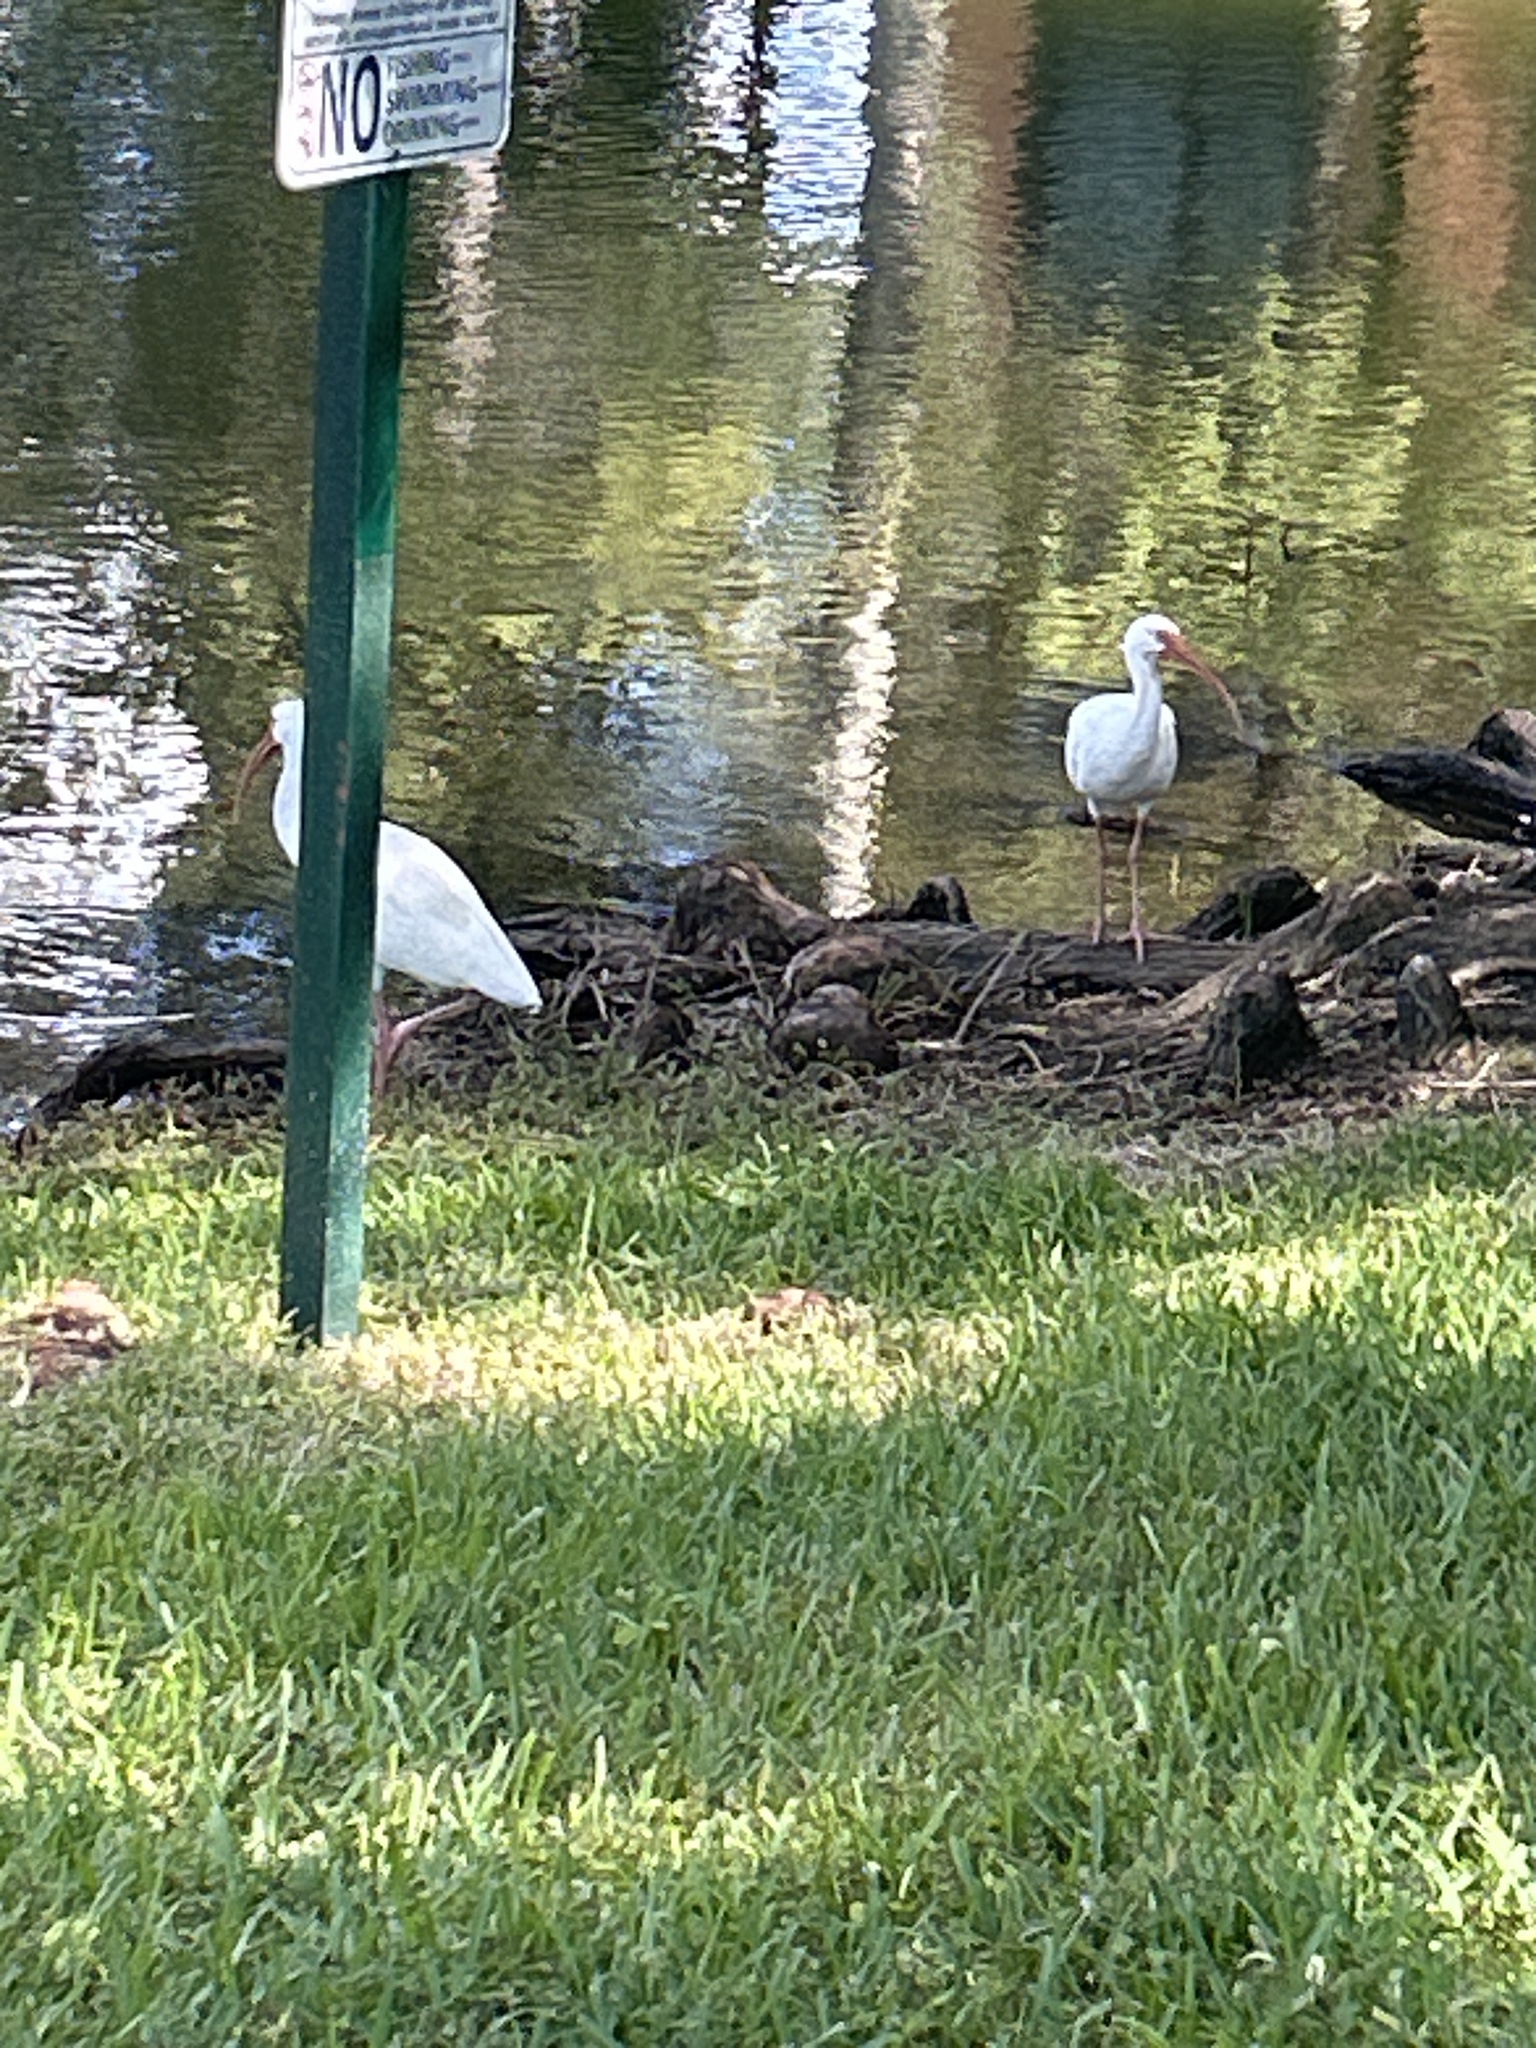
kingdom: Animalia
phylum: Chordata
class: Aves
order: Pelecaniformes
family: Threskiornithidae
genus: Eudocimus
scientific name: Eudocimus albus
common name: White ibis
